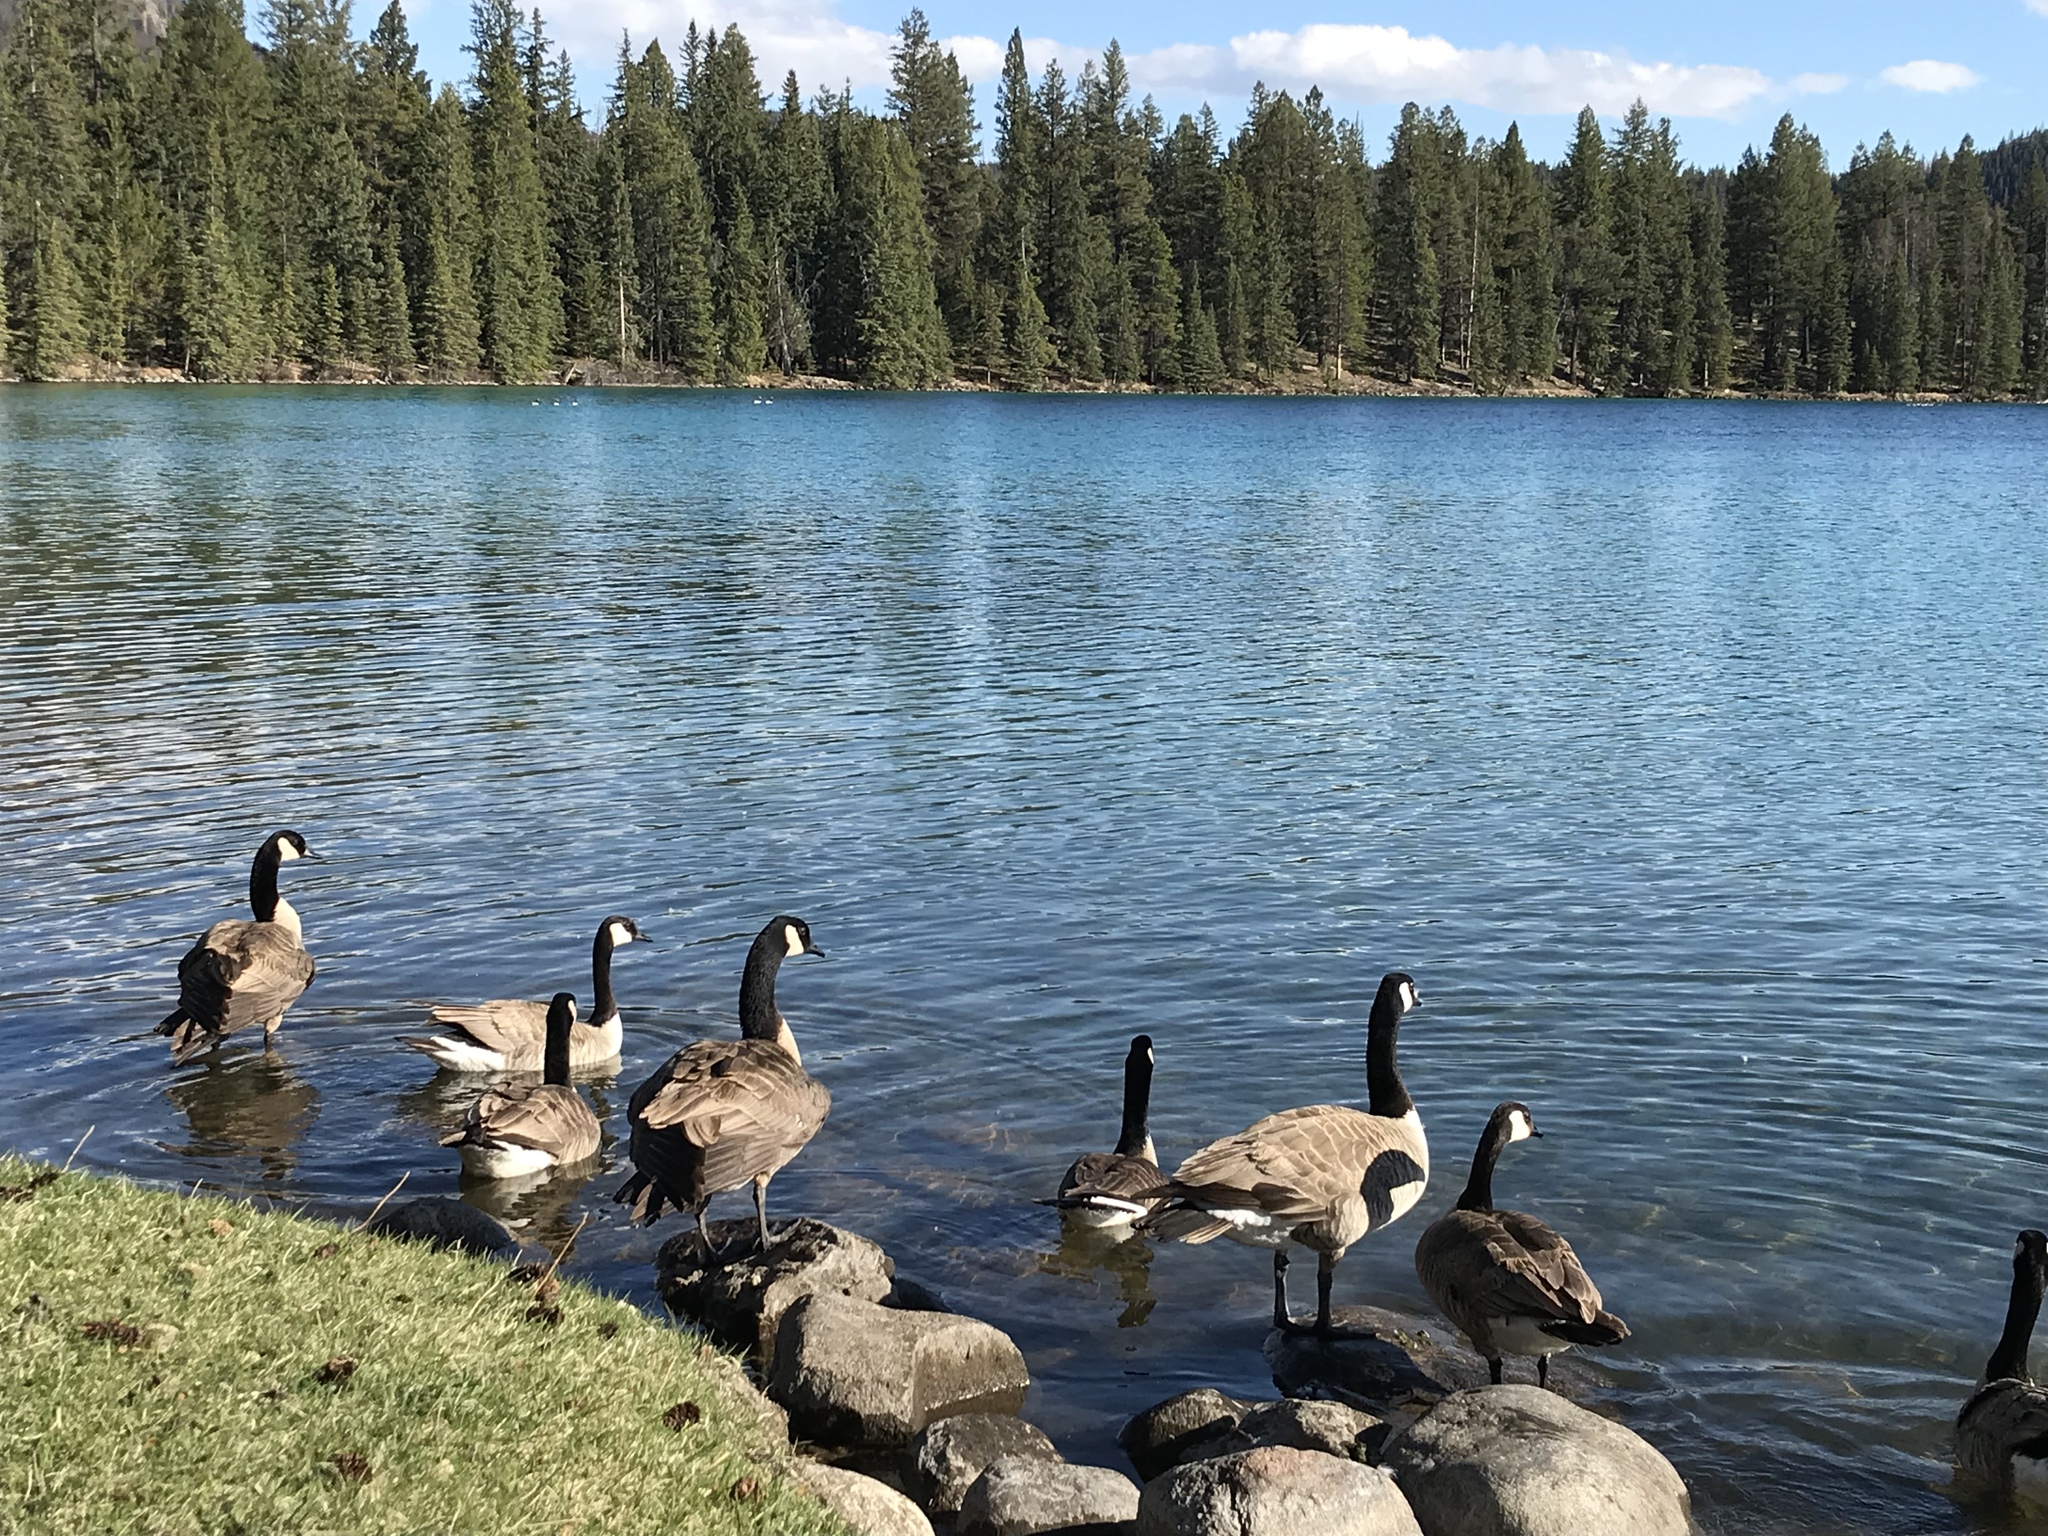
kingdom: Animalia
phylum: Chordata
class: Aves
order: Anseriformes
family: Anatidae
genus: Branta
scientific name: Branta canadensis
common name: Canada goose
